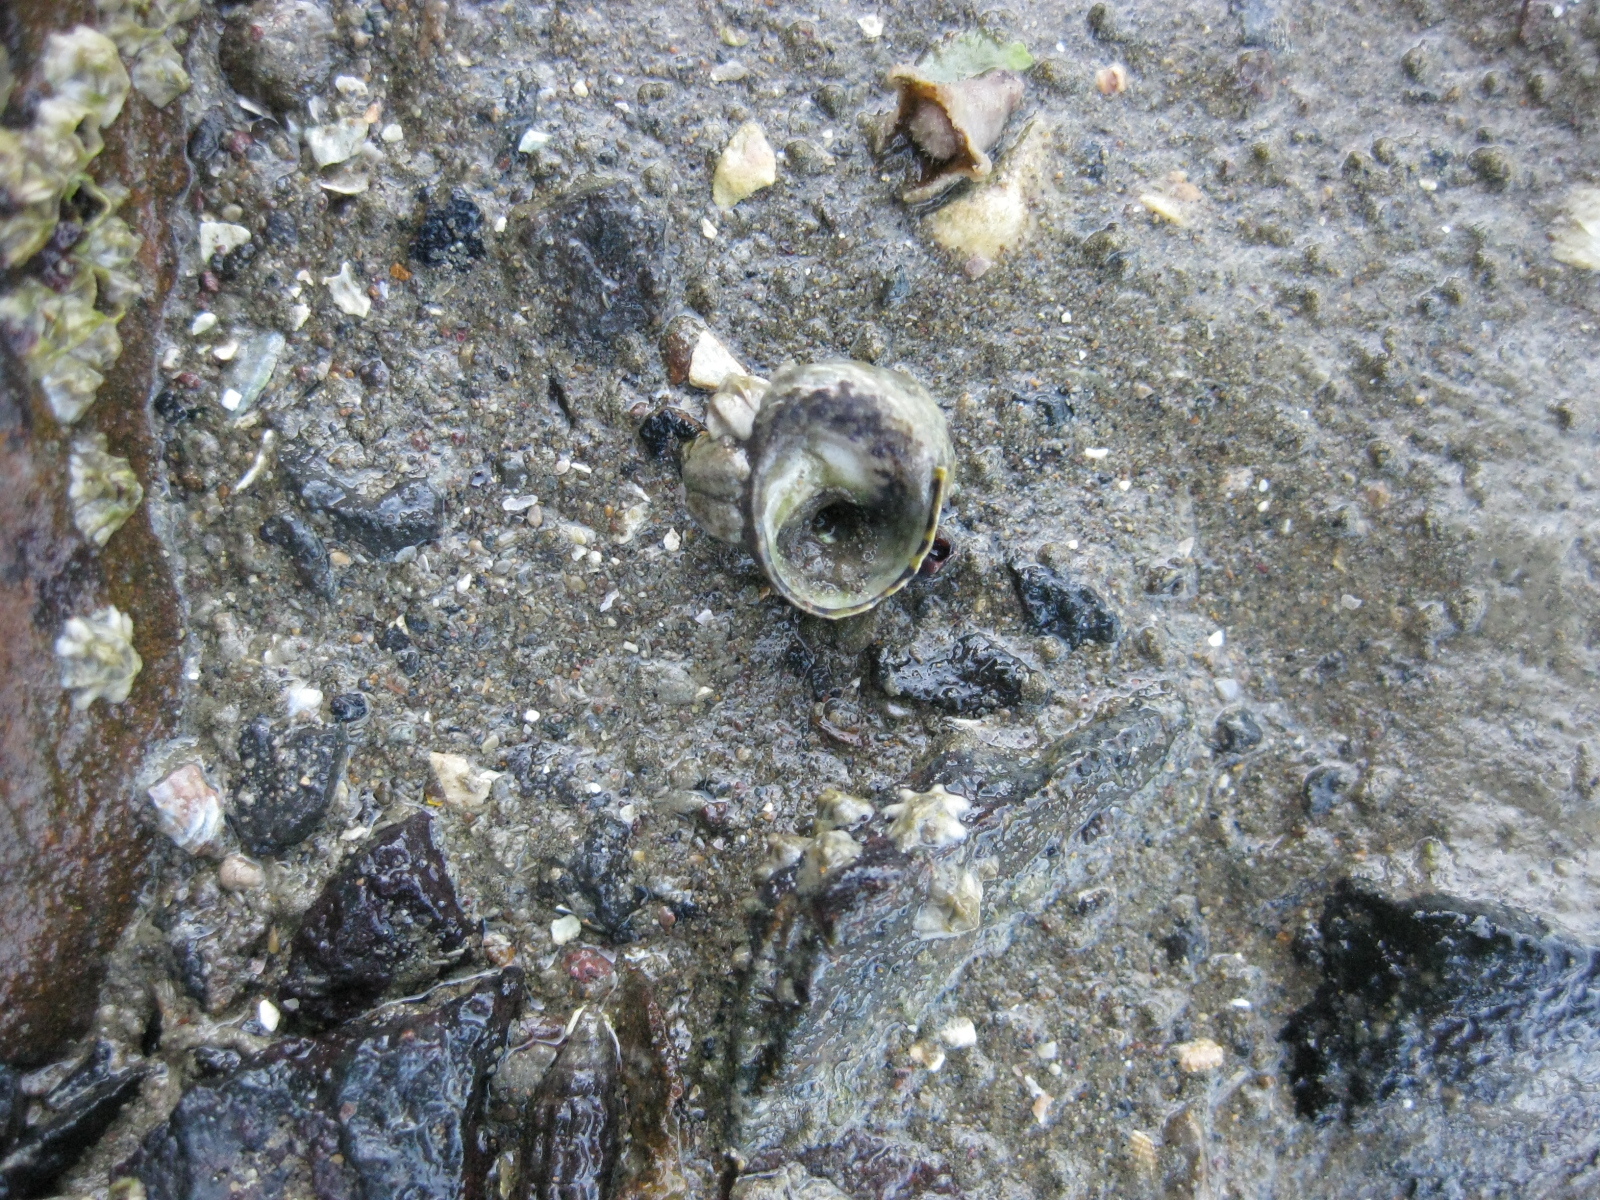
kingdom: Animalia
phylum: Mollusca
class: Gastropoda
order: Trochida
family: Trochidae
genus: Diloma
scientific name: Diloma subrostratum
